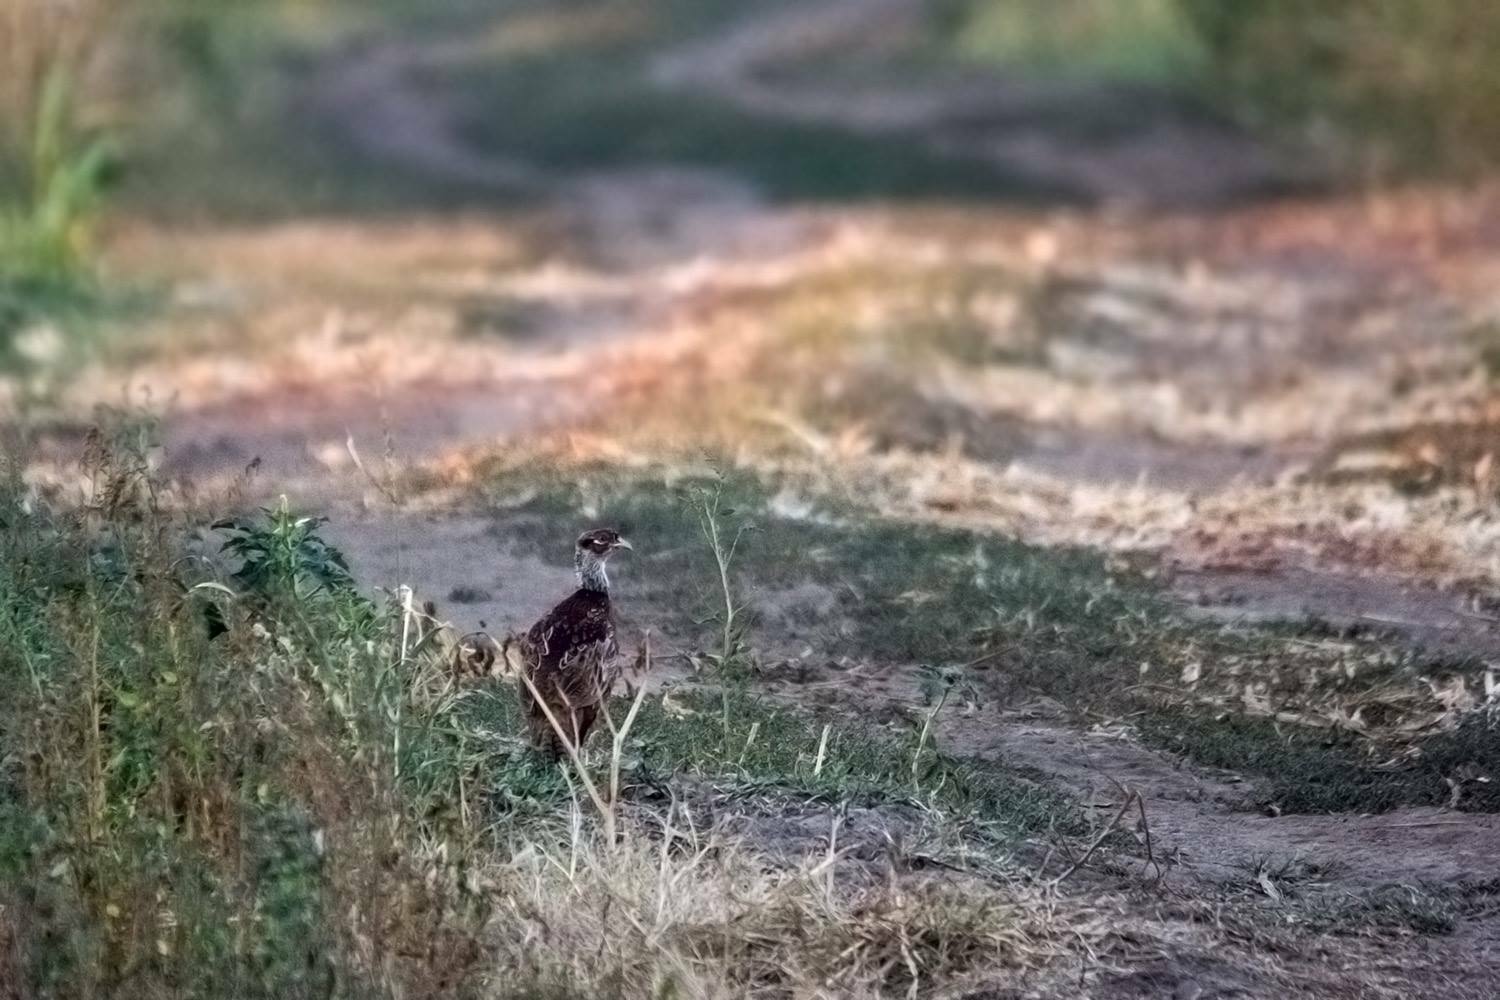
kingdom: Animalia
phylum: Chordata
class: Aves
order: Galliformes
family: Phasianidae
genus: Phasianus
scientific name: Phasianus colchicus
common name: Common pheasant
